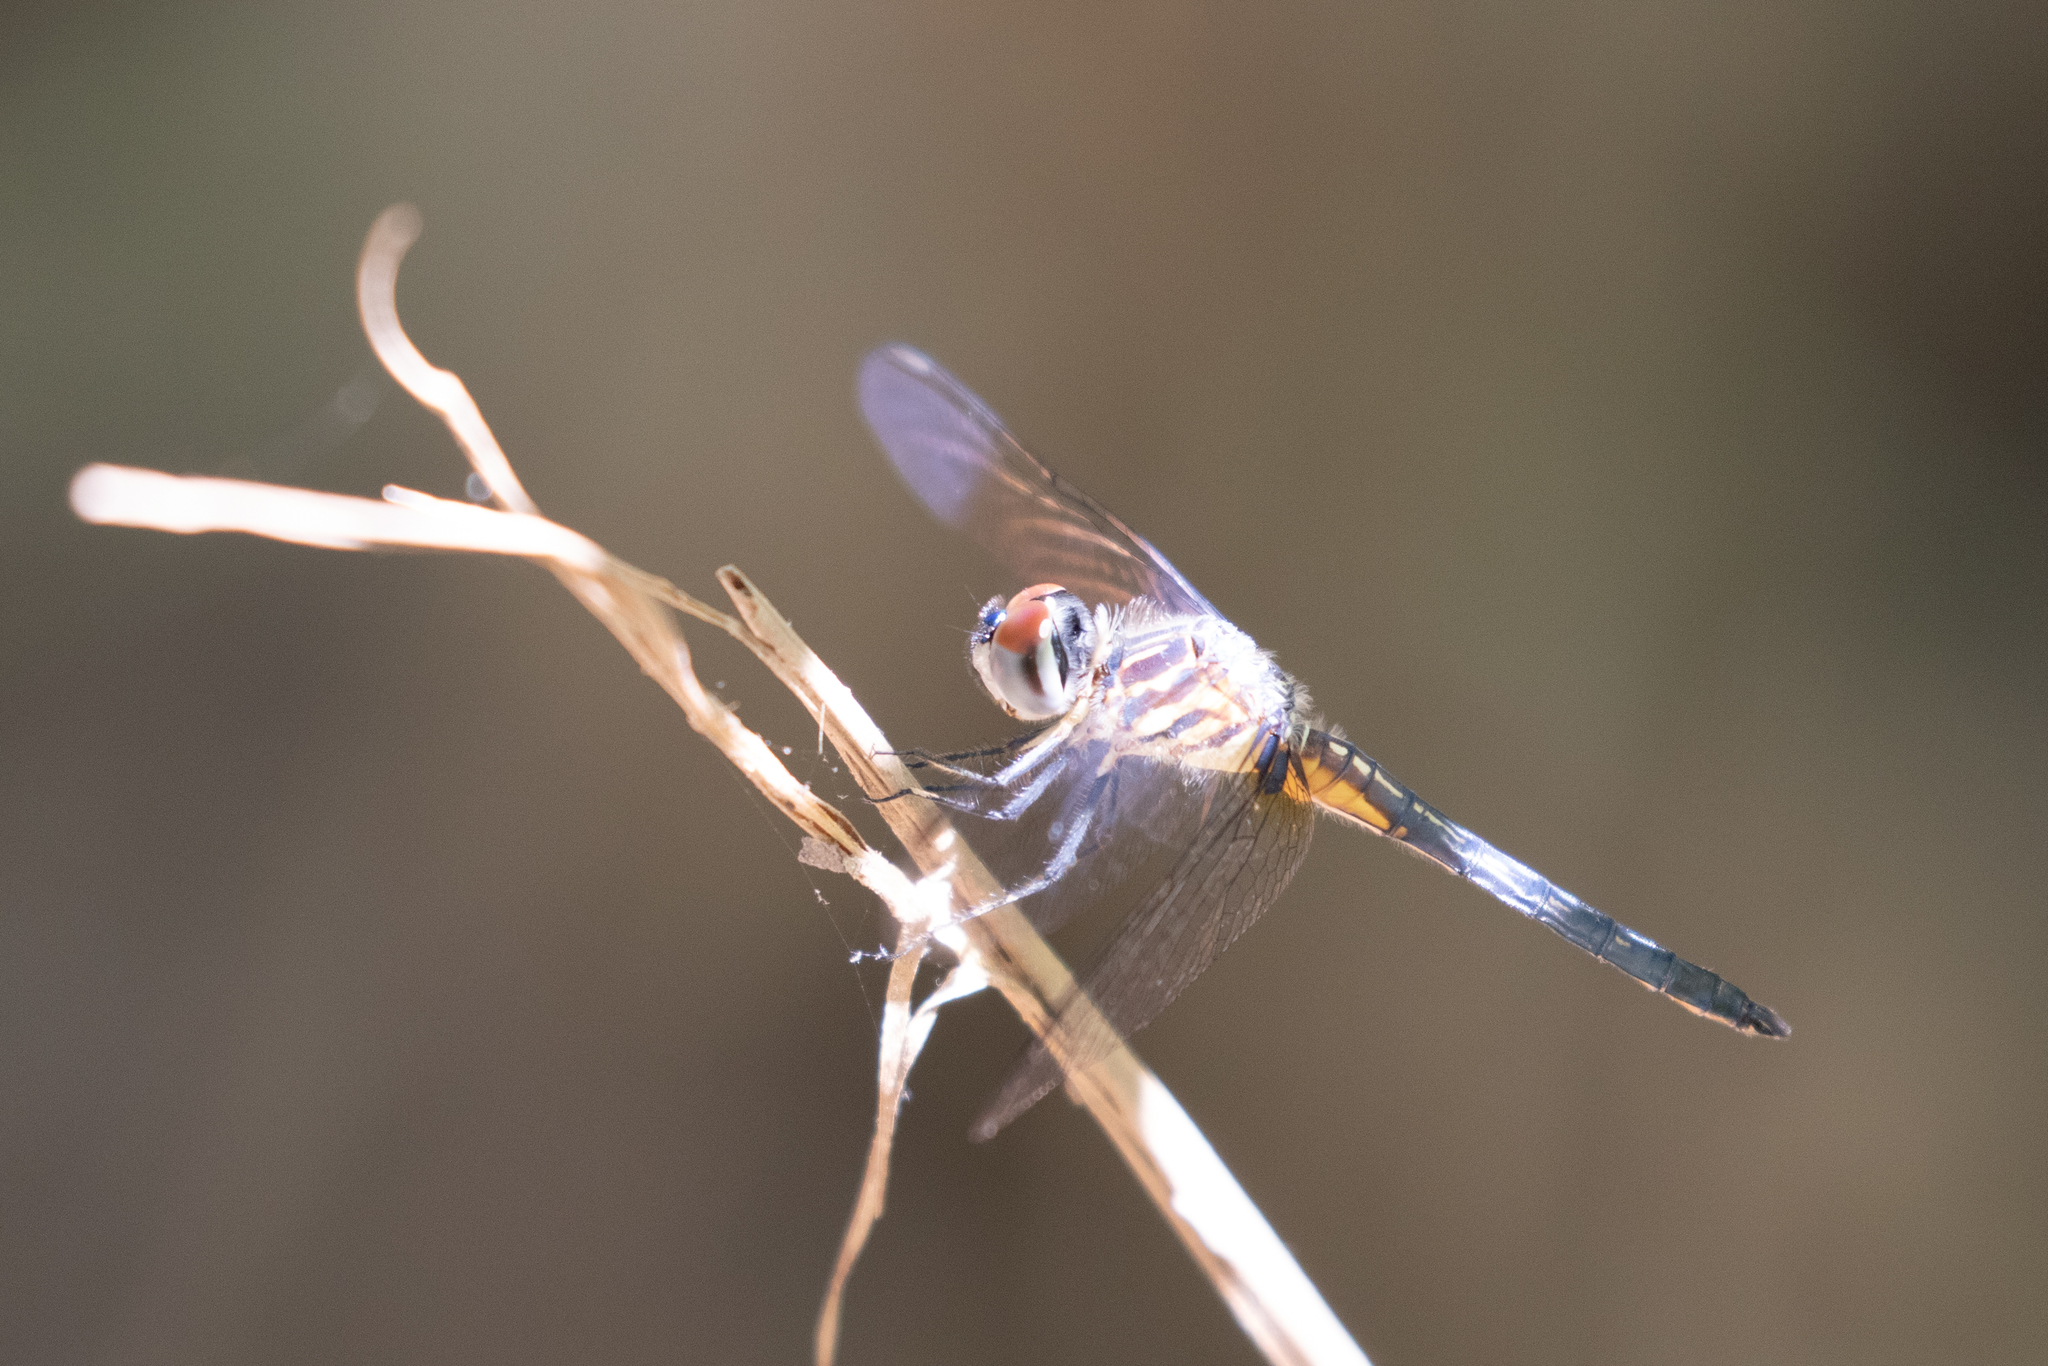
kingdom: Animalia
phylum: Arthropoda
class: Insecta
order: Odonata
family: Libellulidae
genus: Pachydiplax
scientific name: Pachydiplax longipennis
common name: Blue dasher
